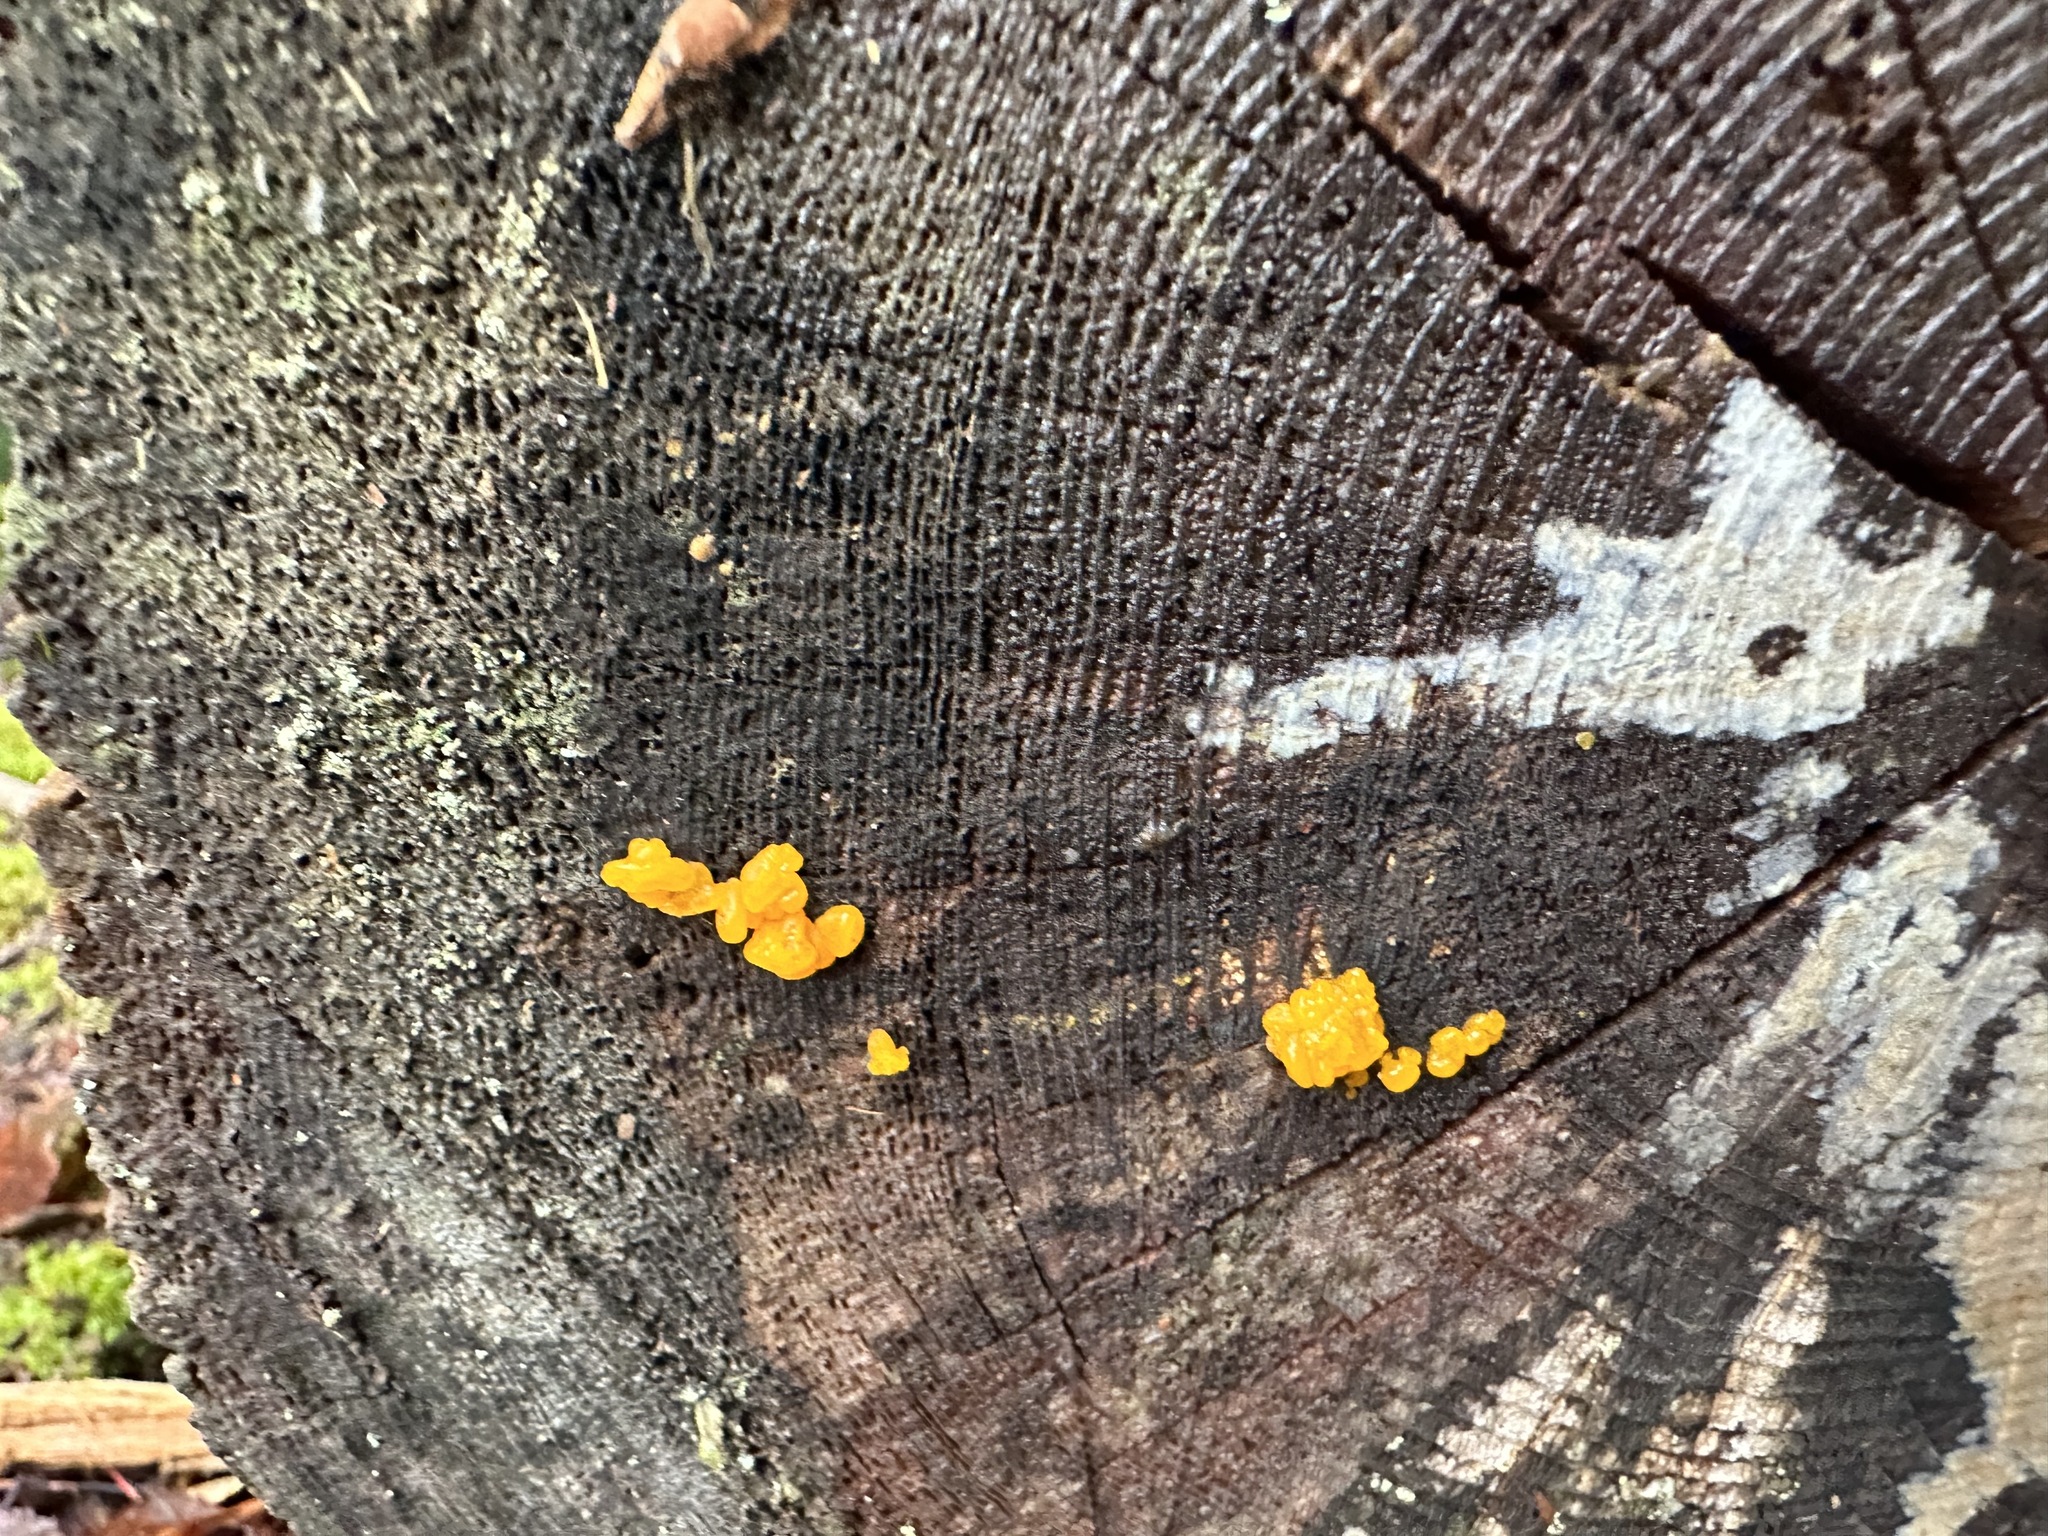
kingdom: Fungi
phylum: Basidiomycota
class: Dacrymycetes
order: Dacrymycetales
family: Dacrymycetaceae
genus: Dacrymyces
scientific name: Dacrymyces chrysospermus
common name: Orange jelly spot
